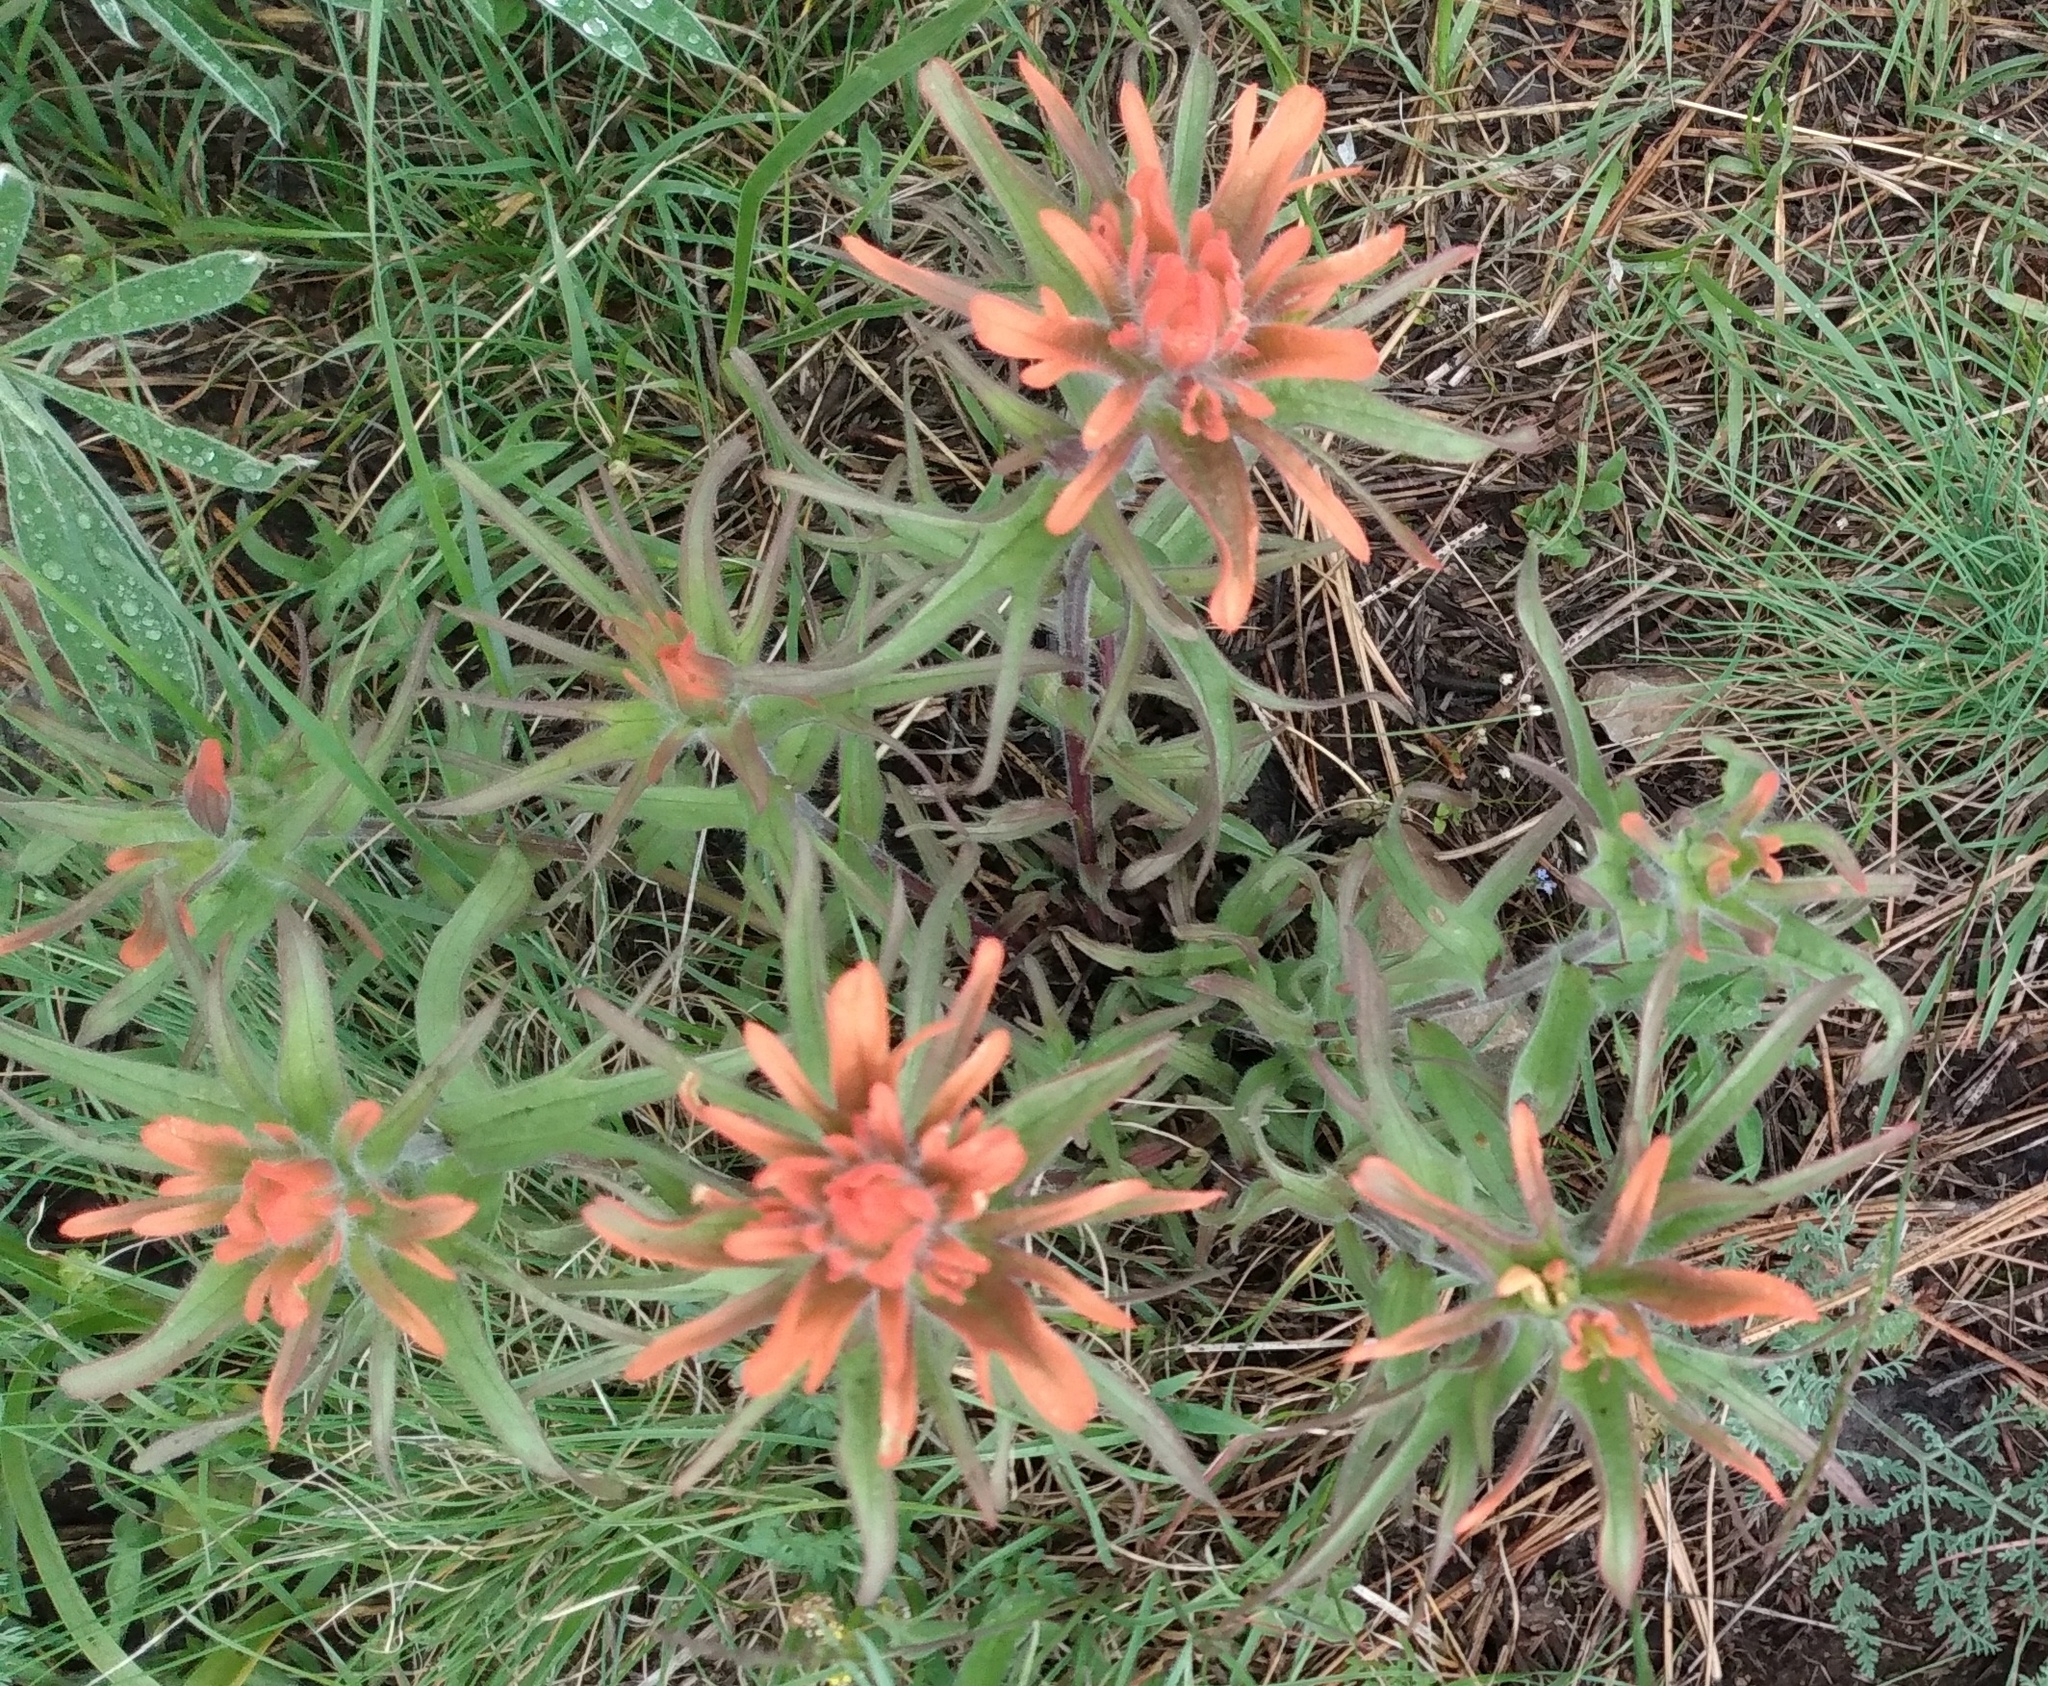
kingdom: Plantae
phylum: Tracheophyta
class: Magnoliopsida
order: Lamiales
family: Orobanchaceae
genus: Castilleja
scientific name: Castilleja hispida
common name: Bristly paintbrush
